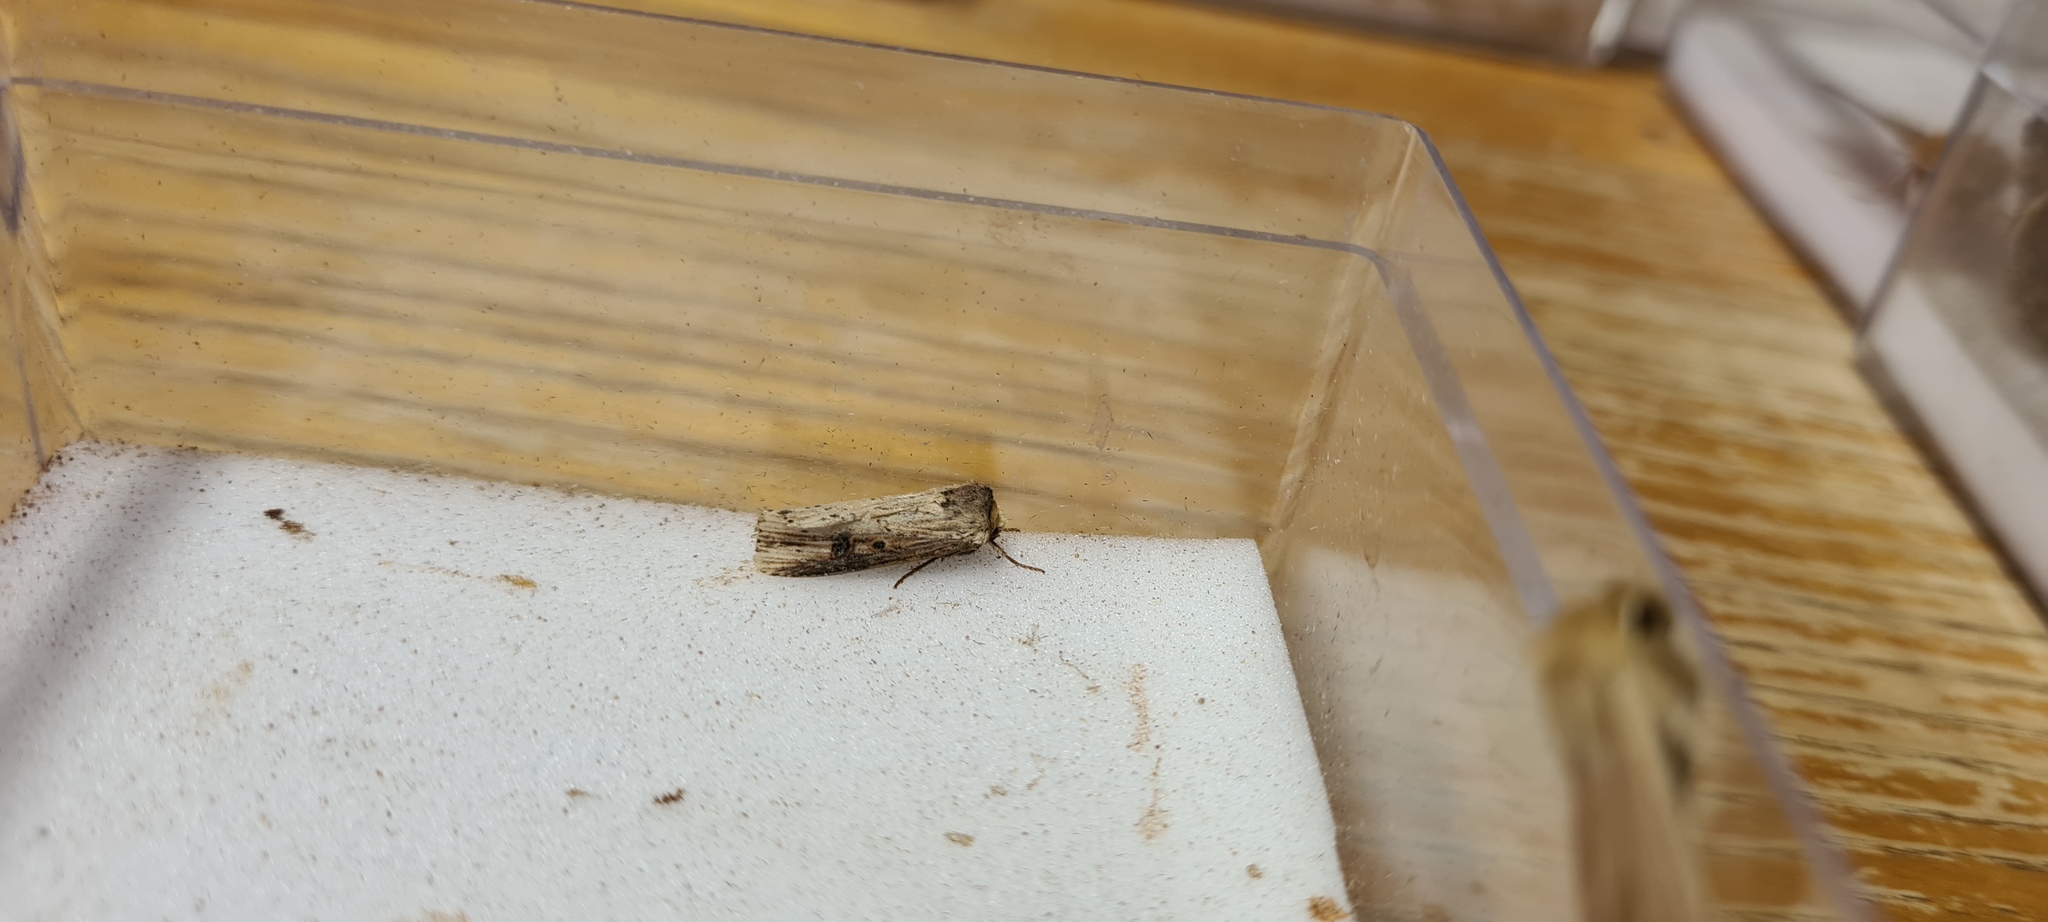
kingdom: Animalia
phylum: Arthropoda
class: Insecta
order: Lepidoptera
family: Noctuidae
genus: Axylia
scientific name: Axylia putris
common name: Flame
